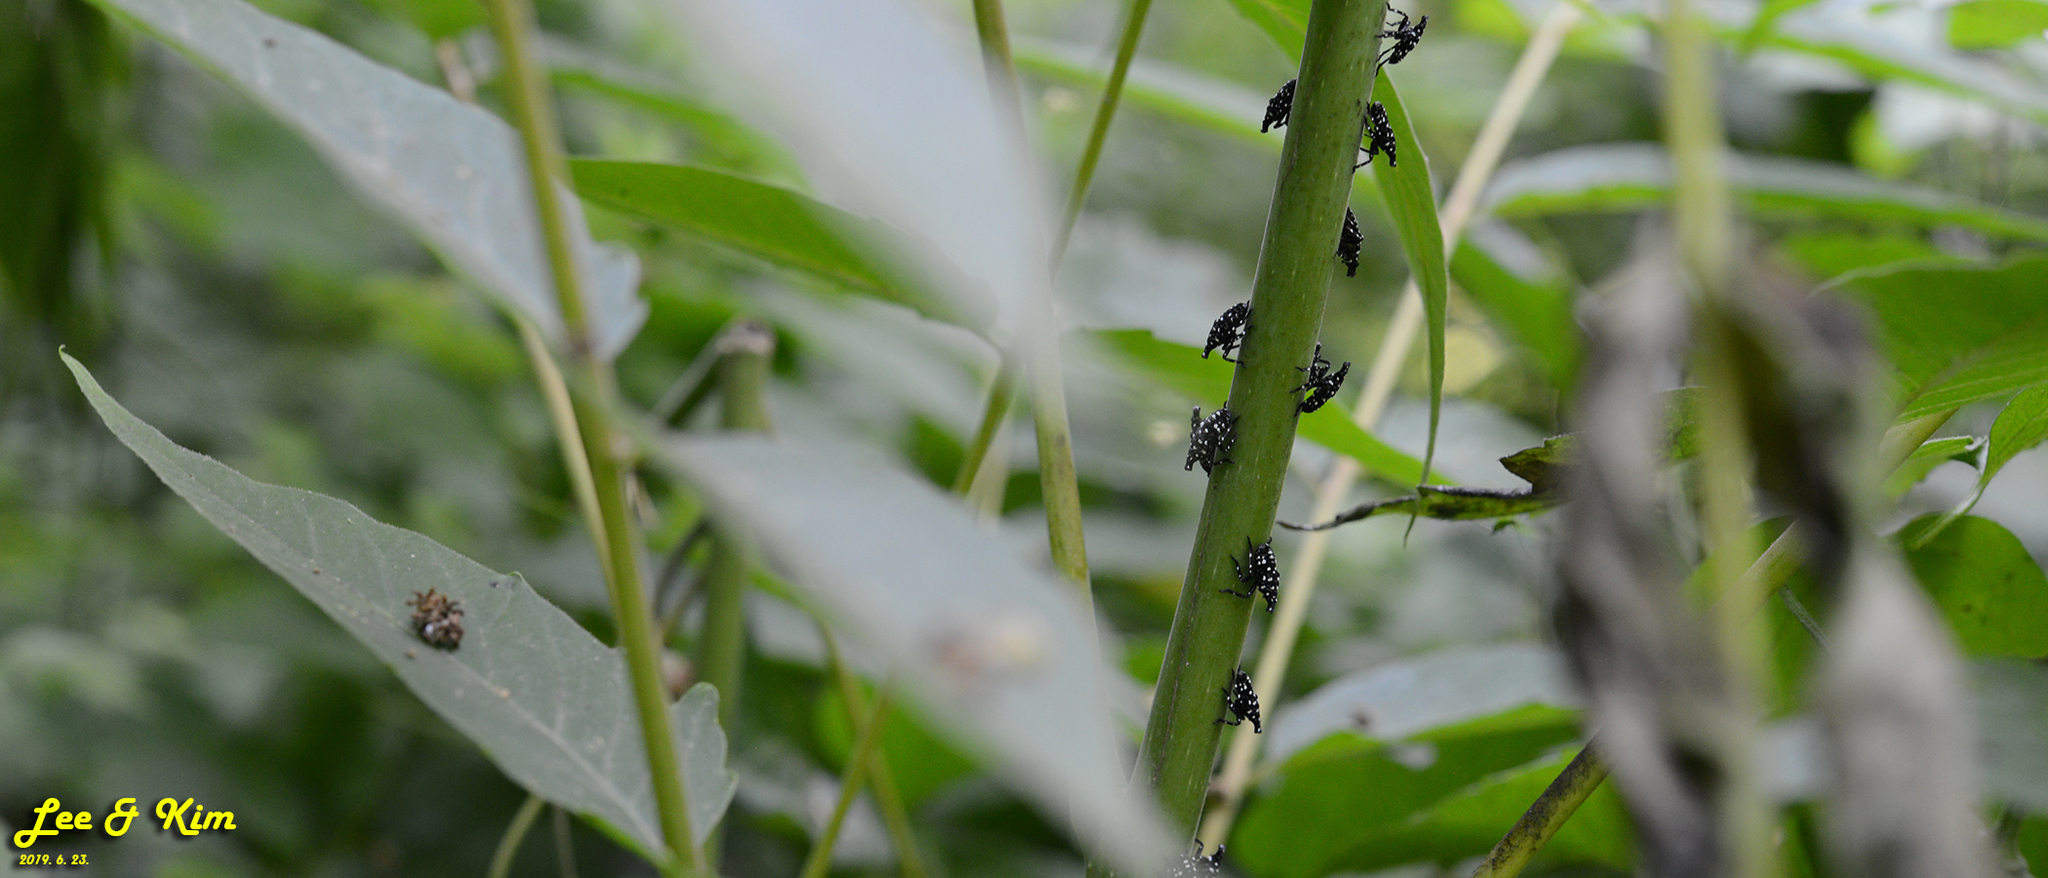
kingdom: Animalia
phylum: Arthropoda
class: Insecta
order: Hemiptera
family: Fulgoridae
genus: Lycorma
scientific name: Lycorma delicatula
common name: Spotted lanternfly
